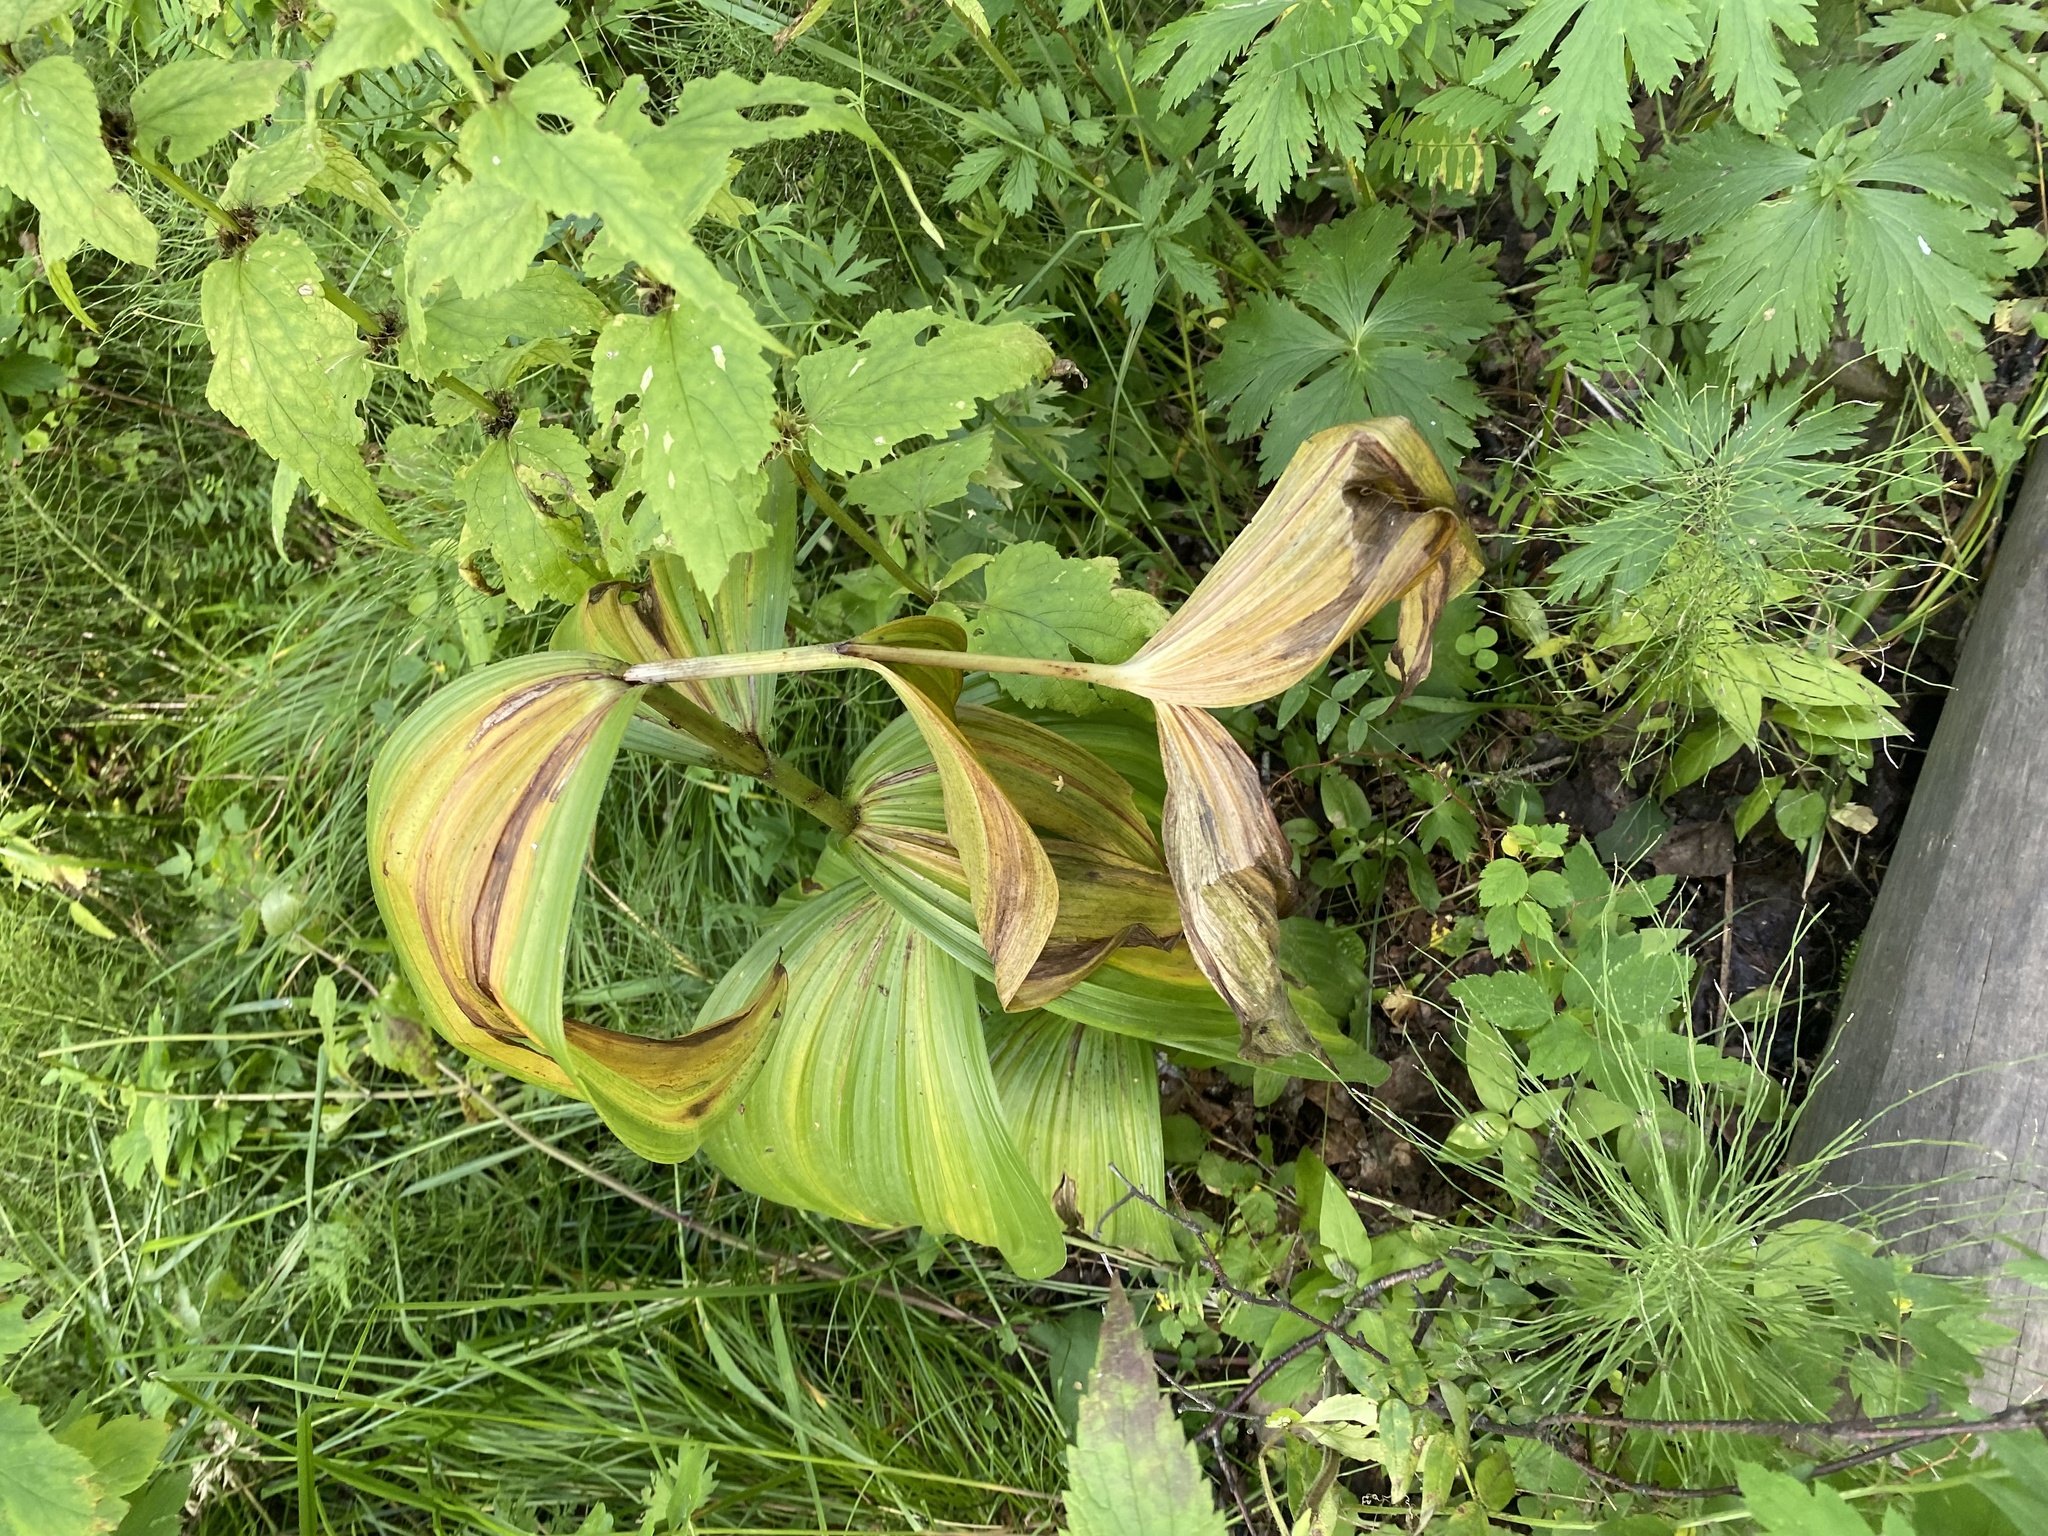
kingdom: Plantae
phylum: Tracheophyta
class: Liliopsida
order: Liliales
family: Melanthiaceae
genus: Veratrum
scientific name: Veratrum lobelianum
